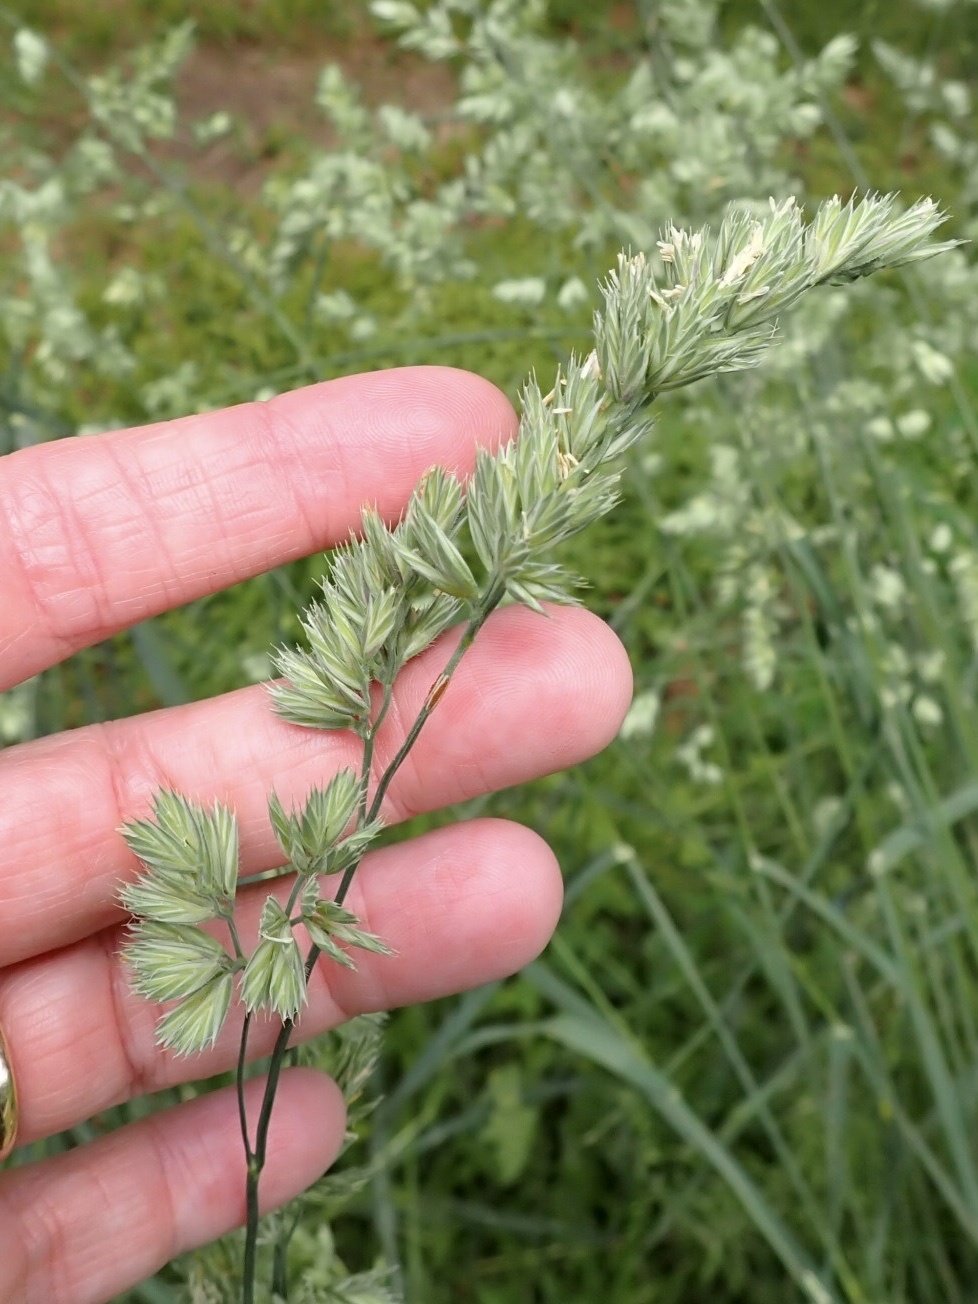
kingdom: Plantae
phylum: Tracheophyta
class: Liliopsida
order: Poales
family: Poaceae
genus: Dactylis
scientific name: Dactylis glomerata
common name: Orchardgrass
